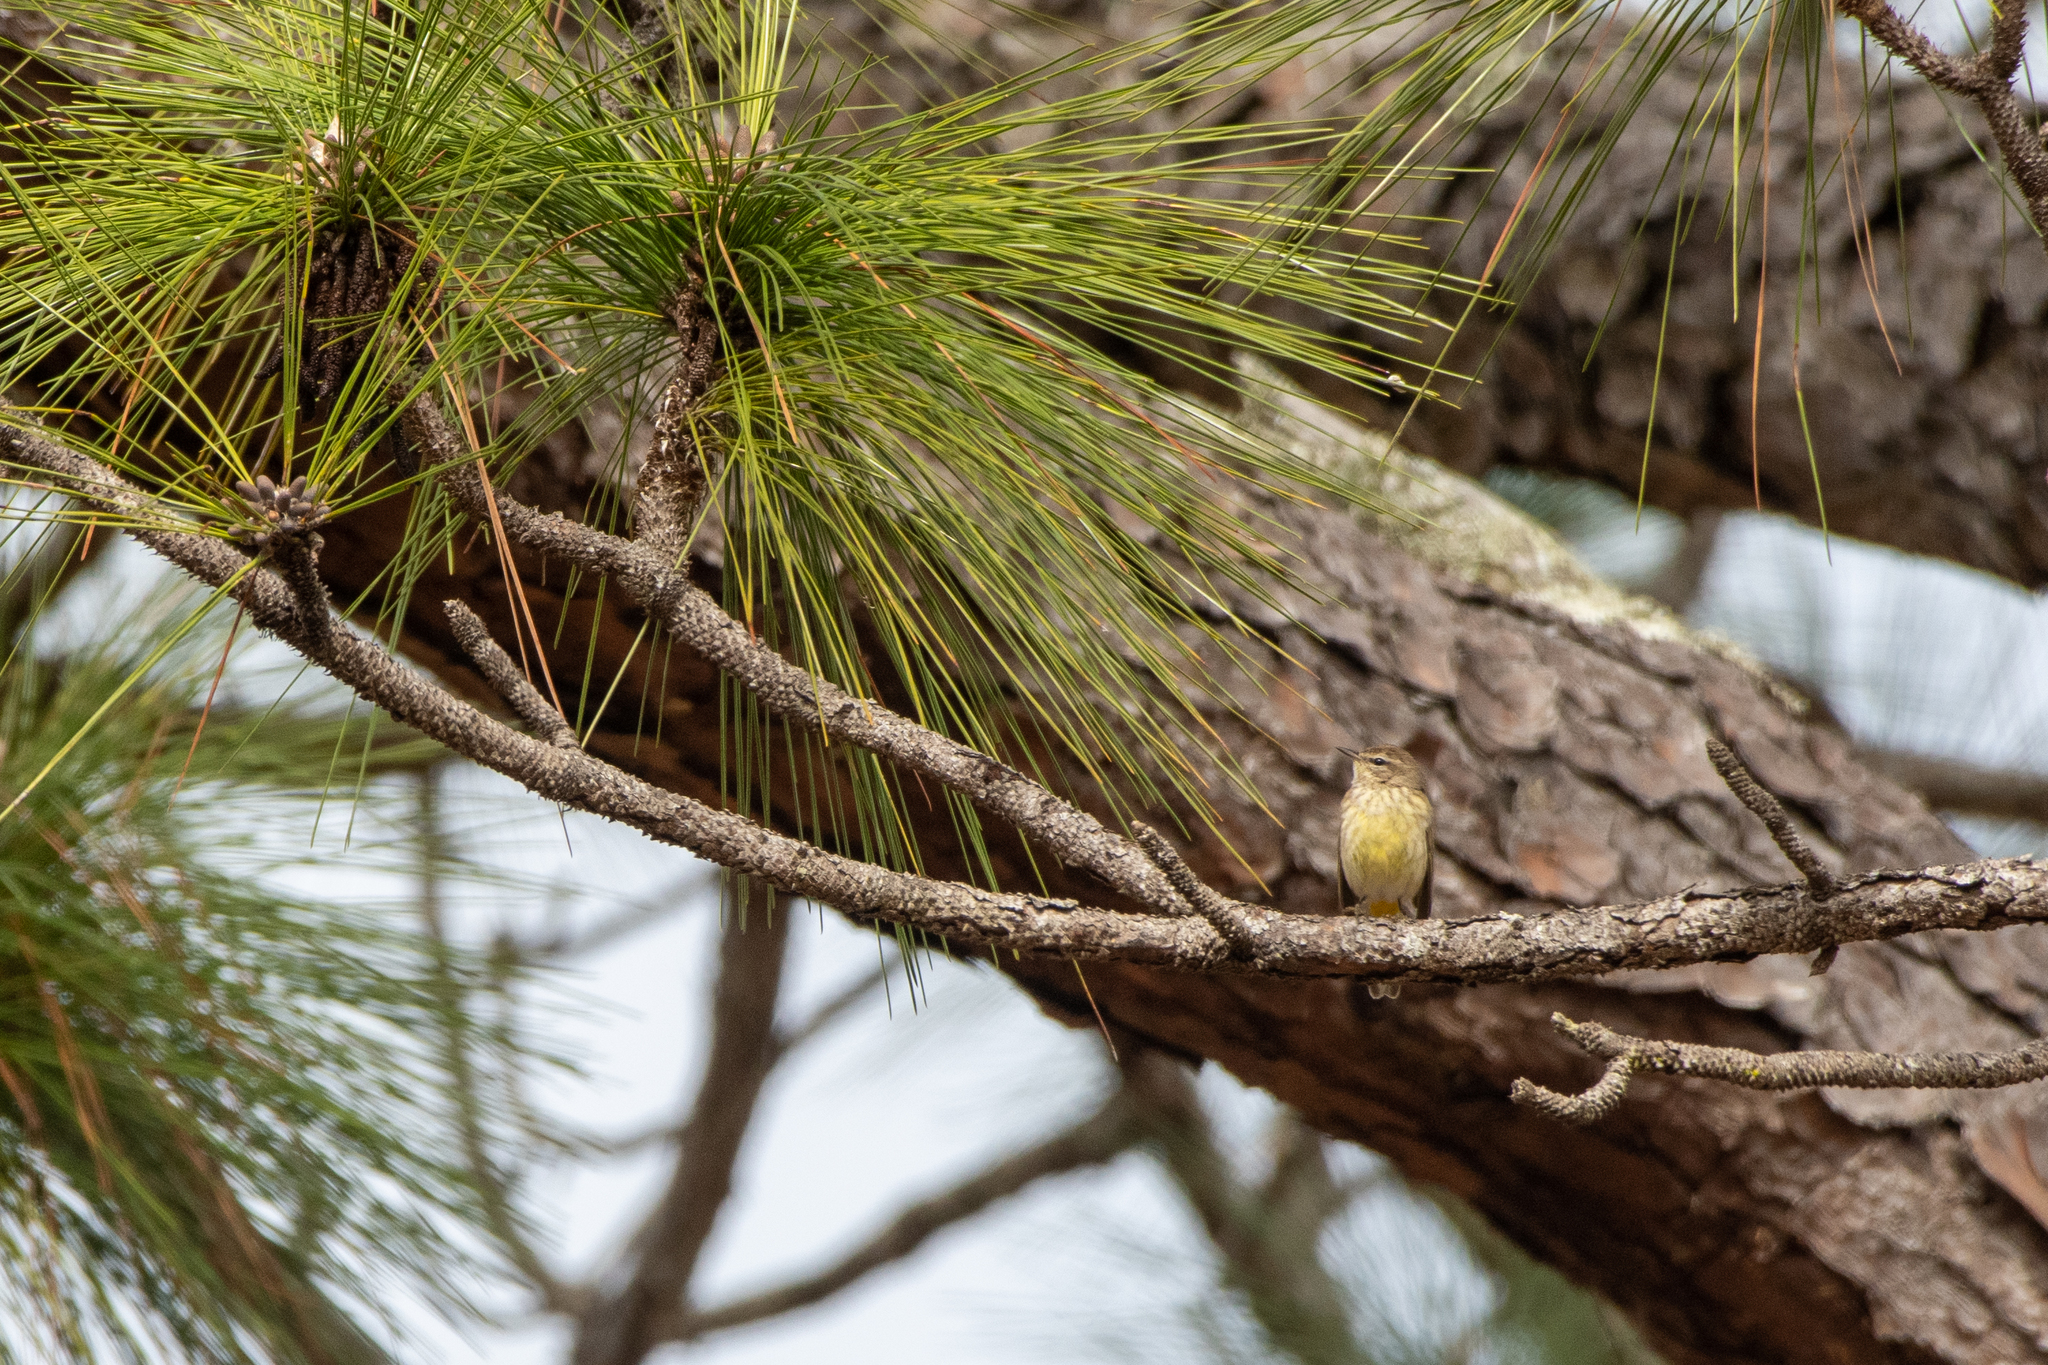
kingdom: Animalia
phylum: Chordata
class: Aves
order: Passeriformes
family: Parulidae
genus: Setophaga
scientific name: Setophaga palmarum
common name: Palm warbler
